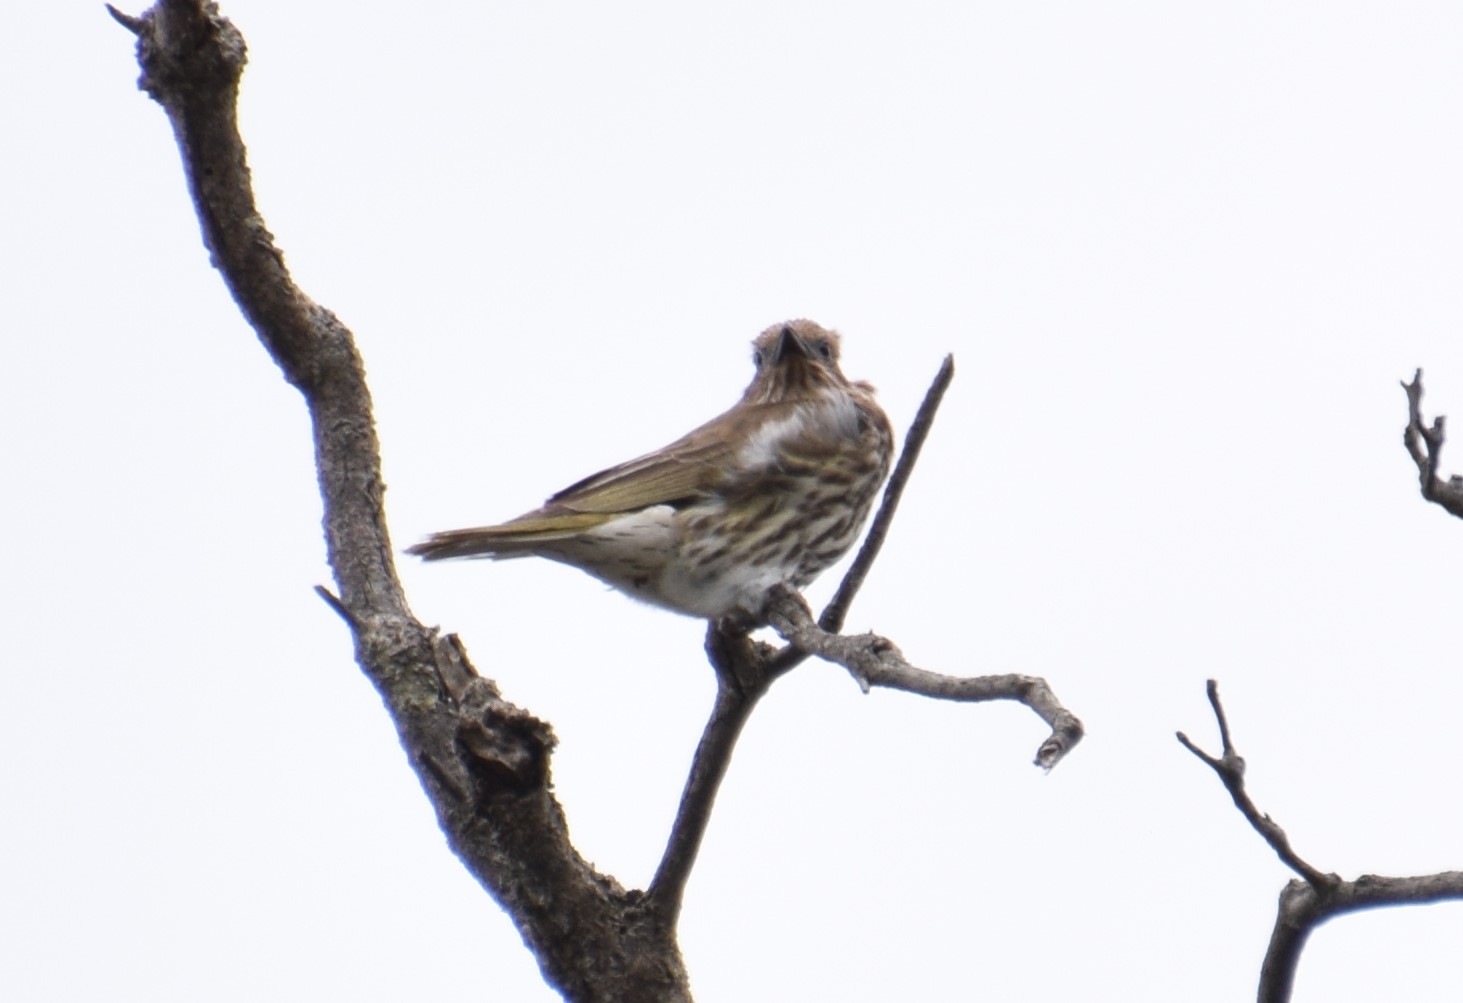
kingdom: Animalia
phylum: Chordata
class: Aves
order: Passeriformes
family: Oriolidae
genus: Sphecotheres
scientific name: Sphecotheres vieilloti
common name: Australasian figbird
